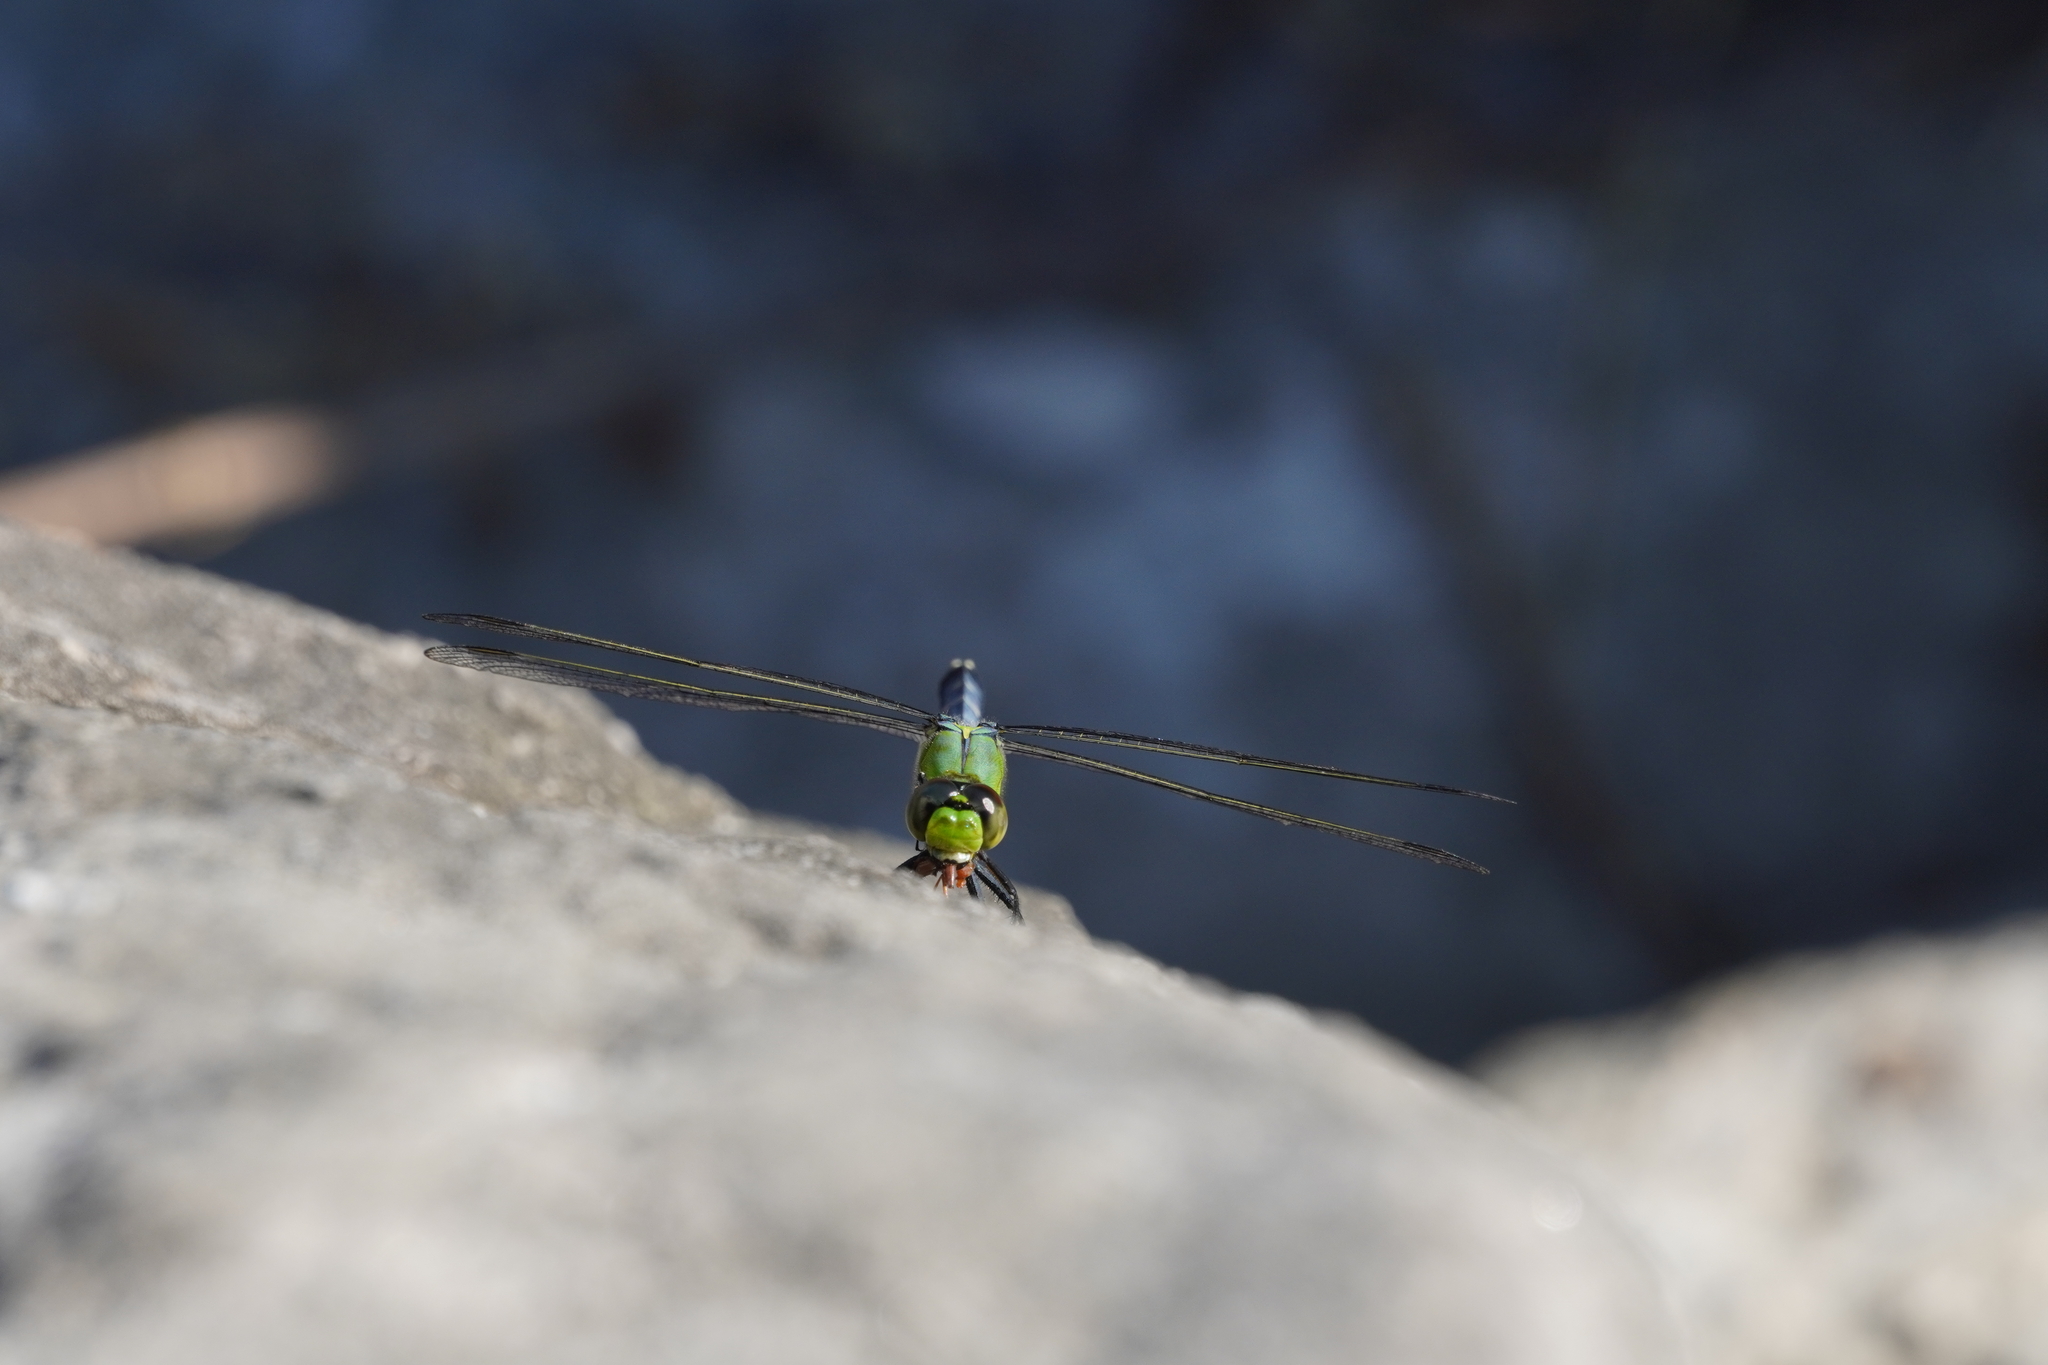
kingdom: Animalia
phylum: Arthropoda
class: Insecta
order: Odonata
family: Libellulidae
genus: Erythemis
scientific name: Erythemis simplicicollis
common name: Eastern pondhawk
